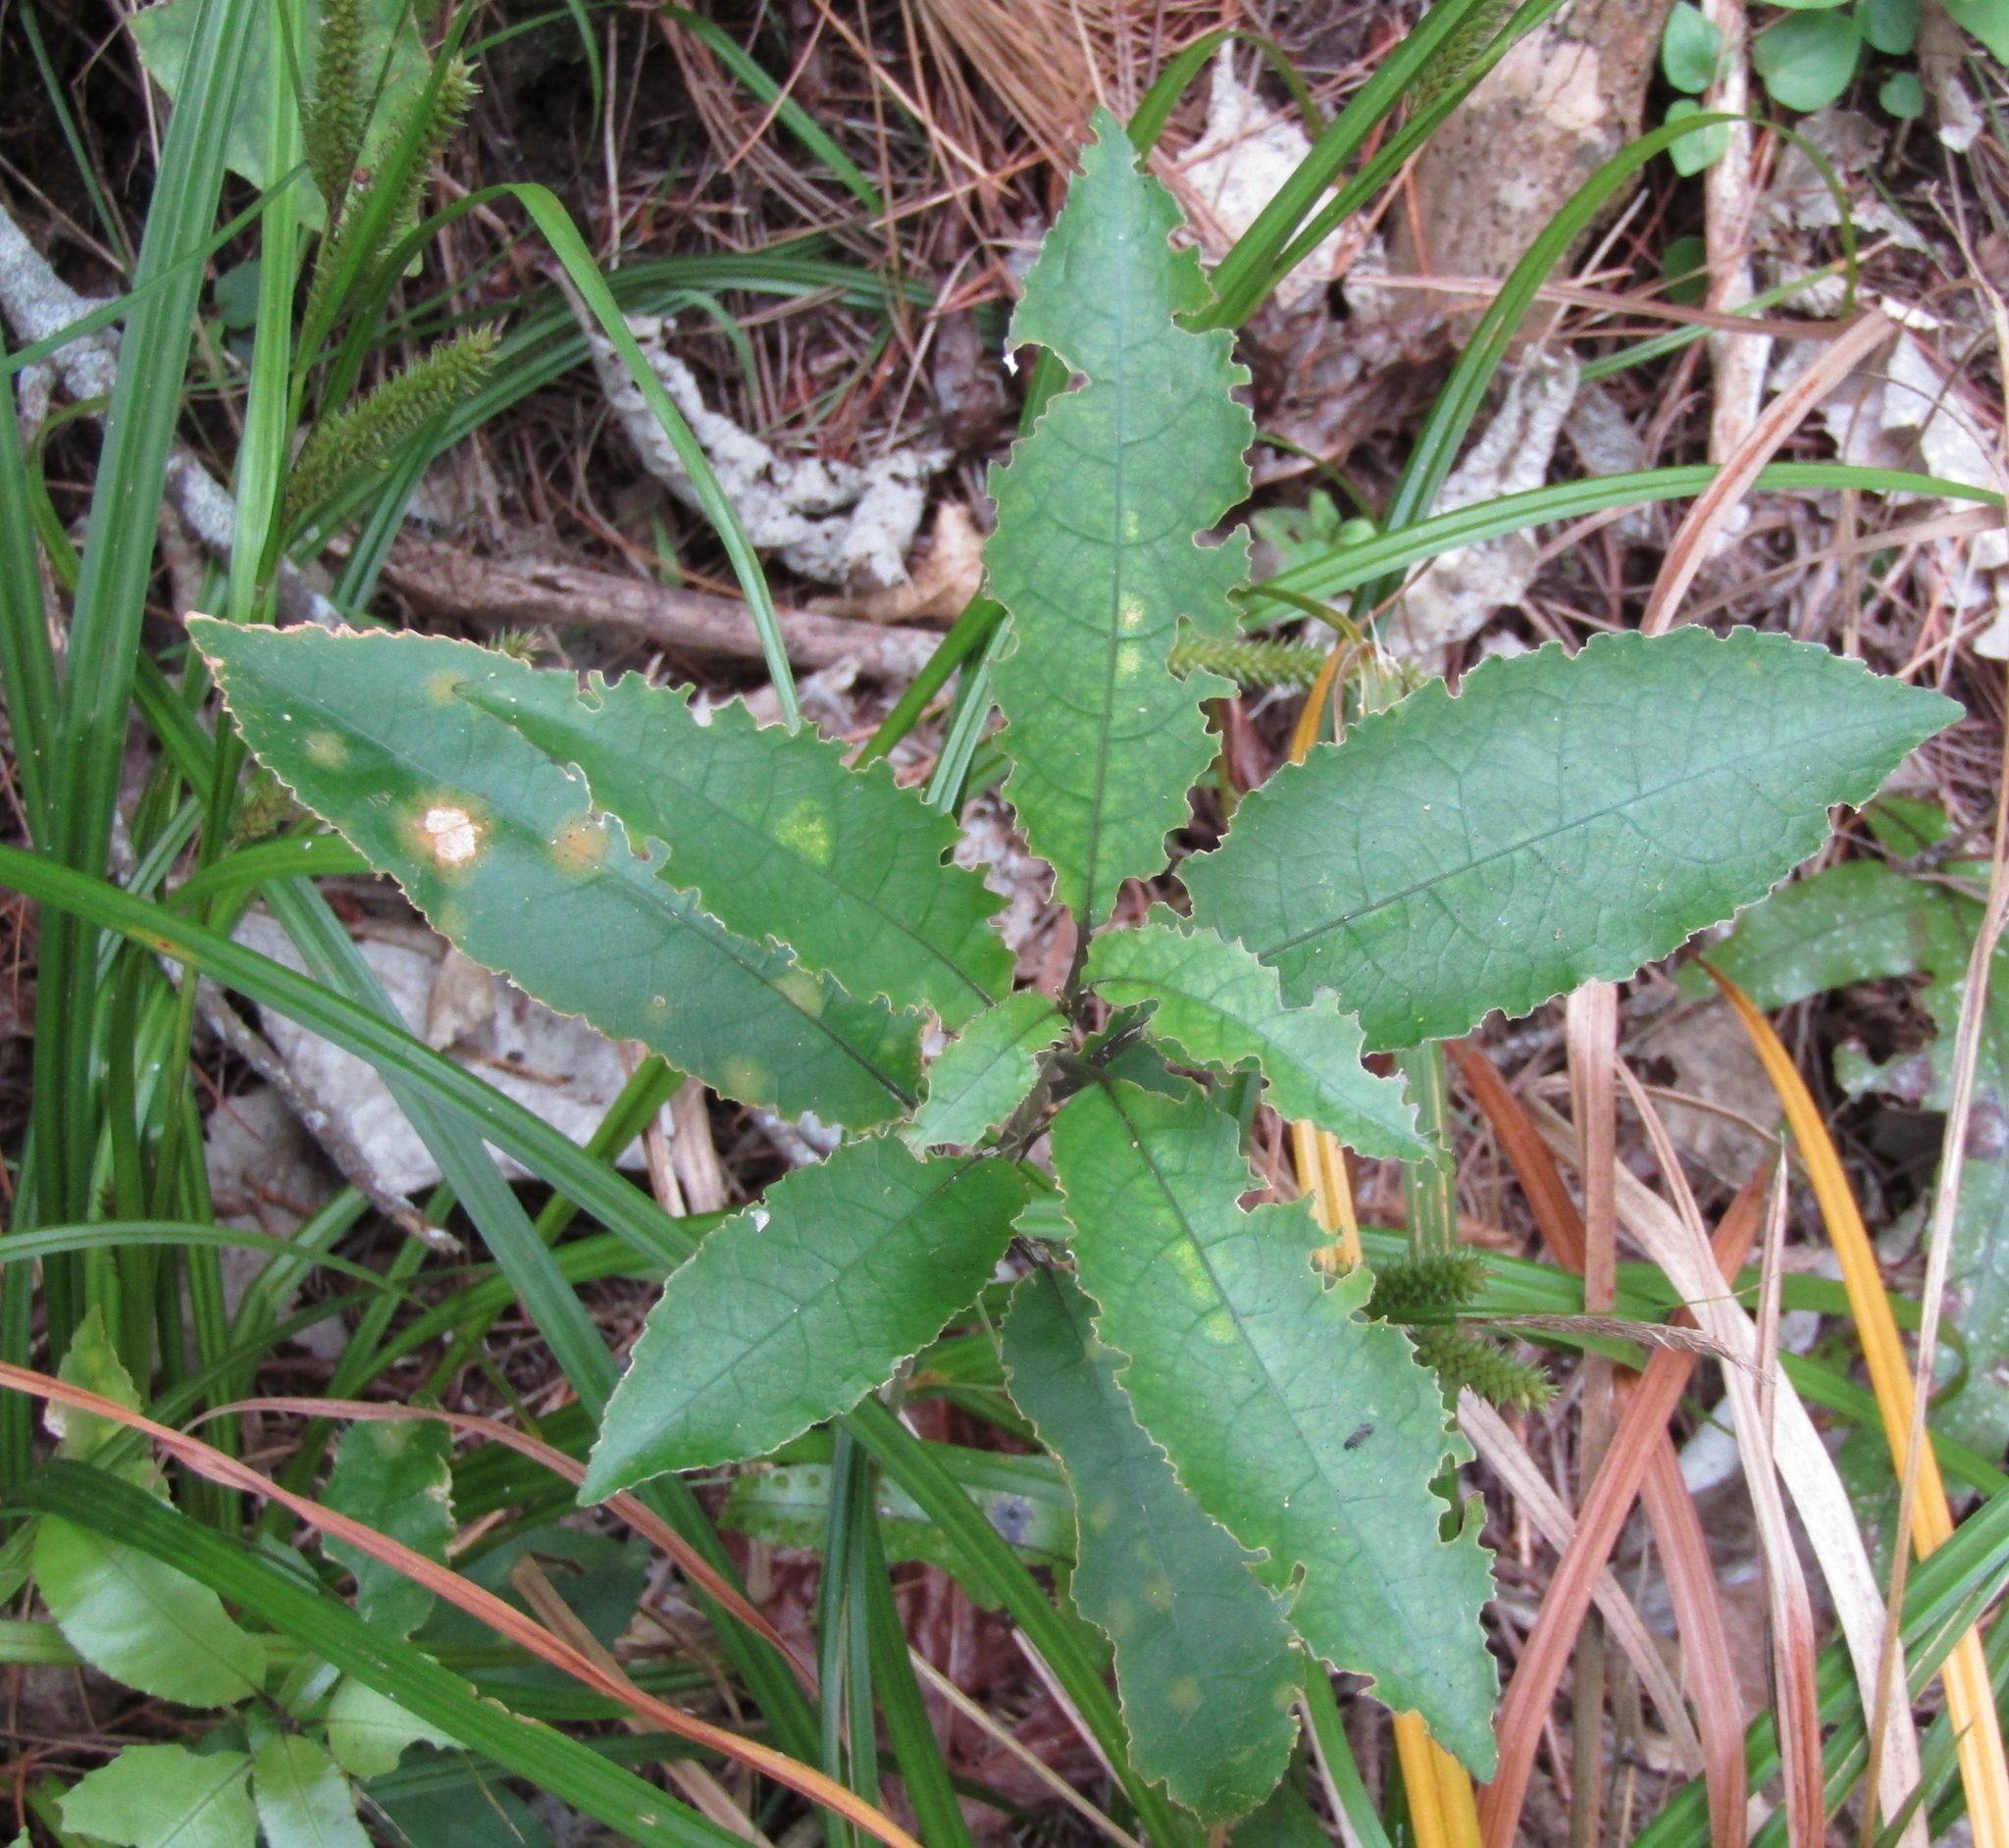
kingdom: Plantae
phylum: Tracheophyta
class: Magnoliopsida
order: Malpighiales
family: Violaceae
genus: Melicytus
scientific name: Melicytus ramiflorus
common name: Mahoe
